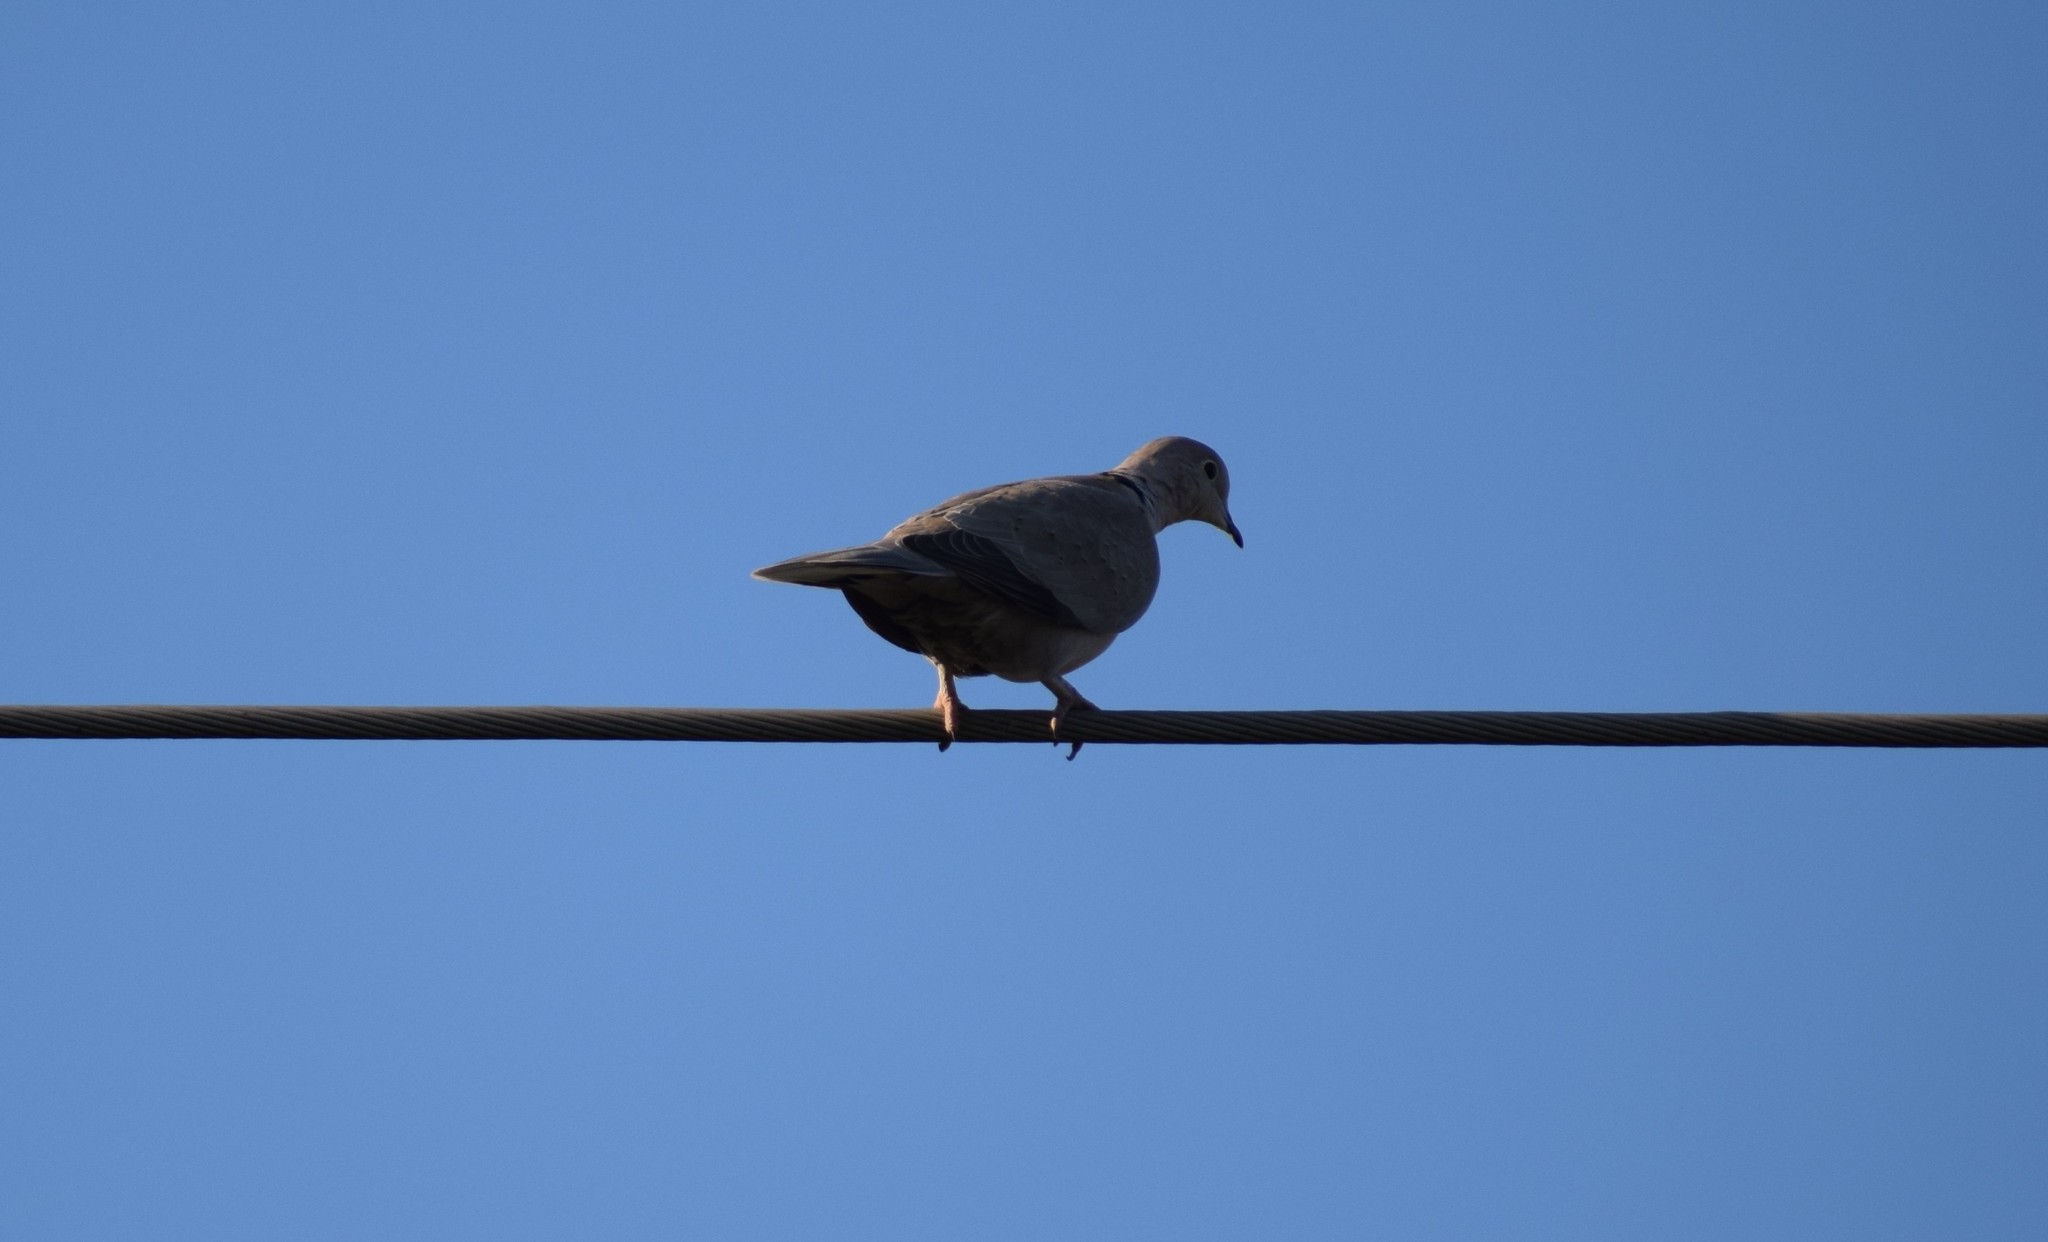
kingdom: Animalia
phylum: Chordata
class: Aves
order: Columbiformes
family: Columbidae
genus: Streptopelia
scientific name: Streptopelia decaocto
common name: Eurasian collared dove
